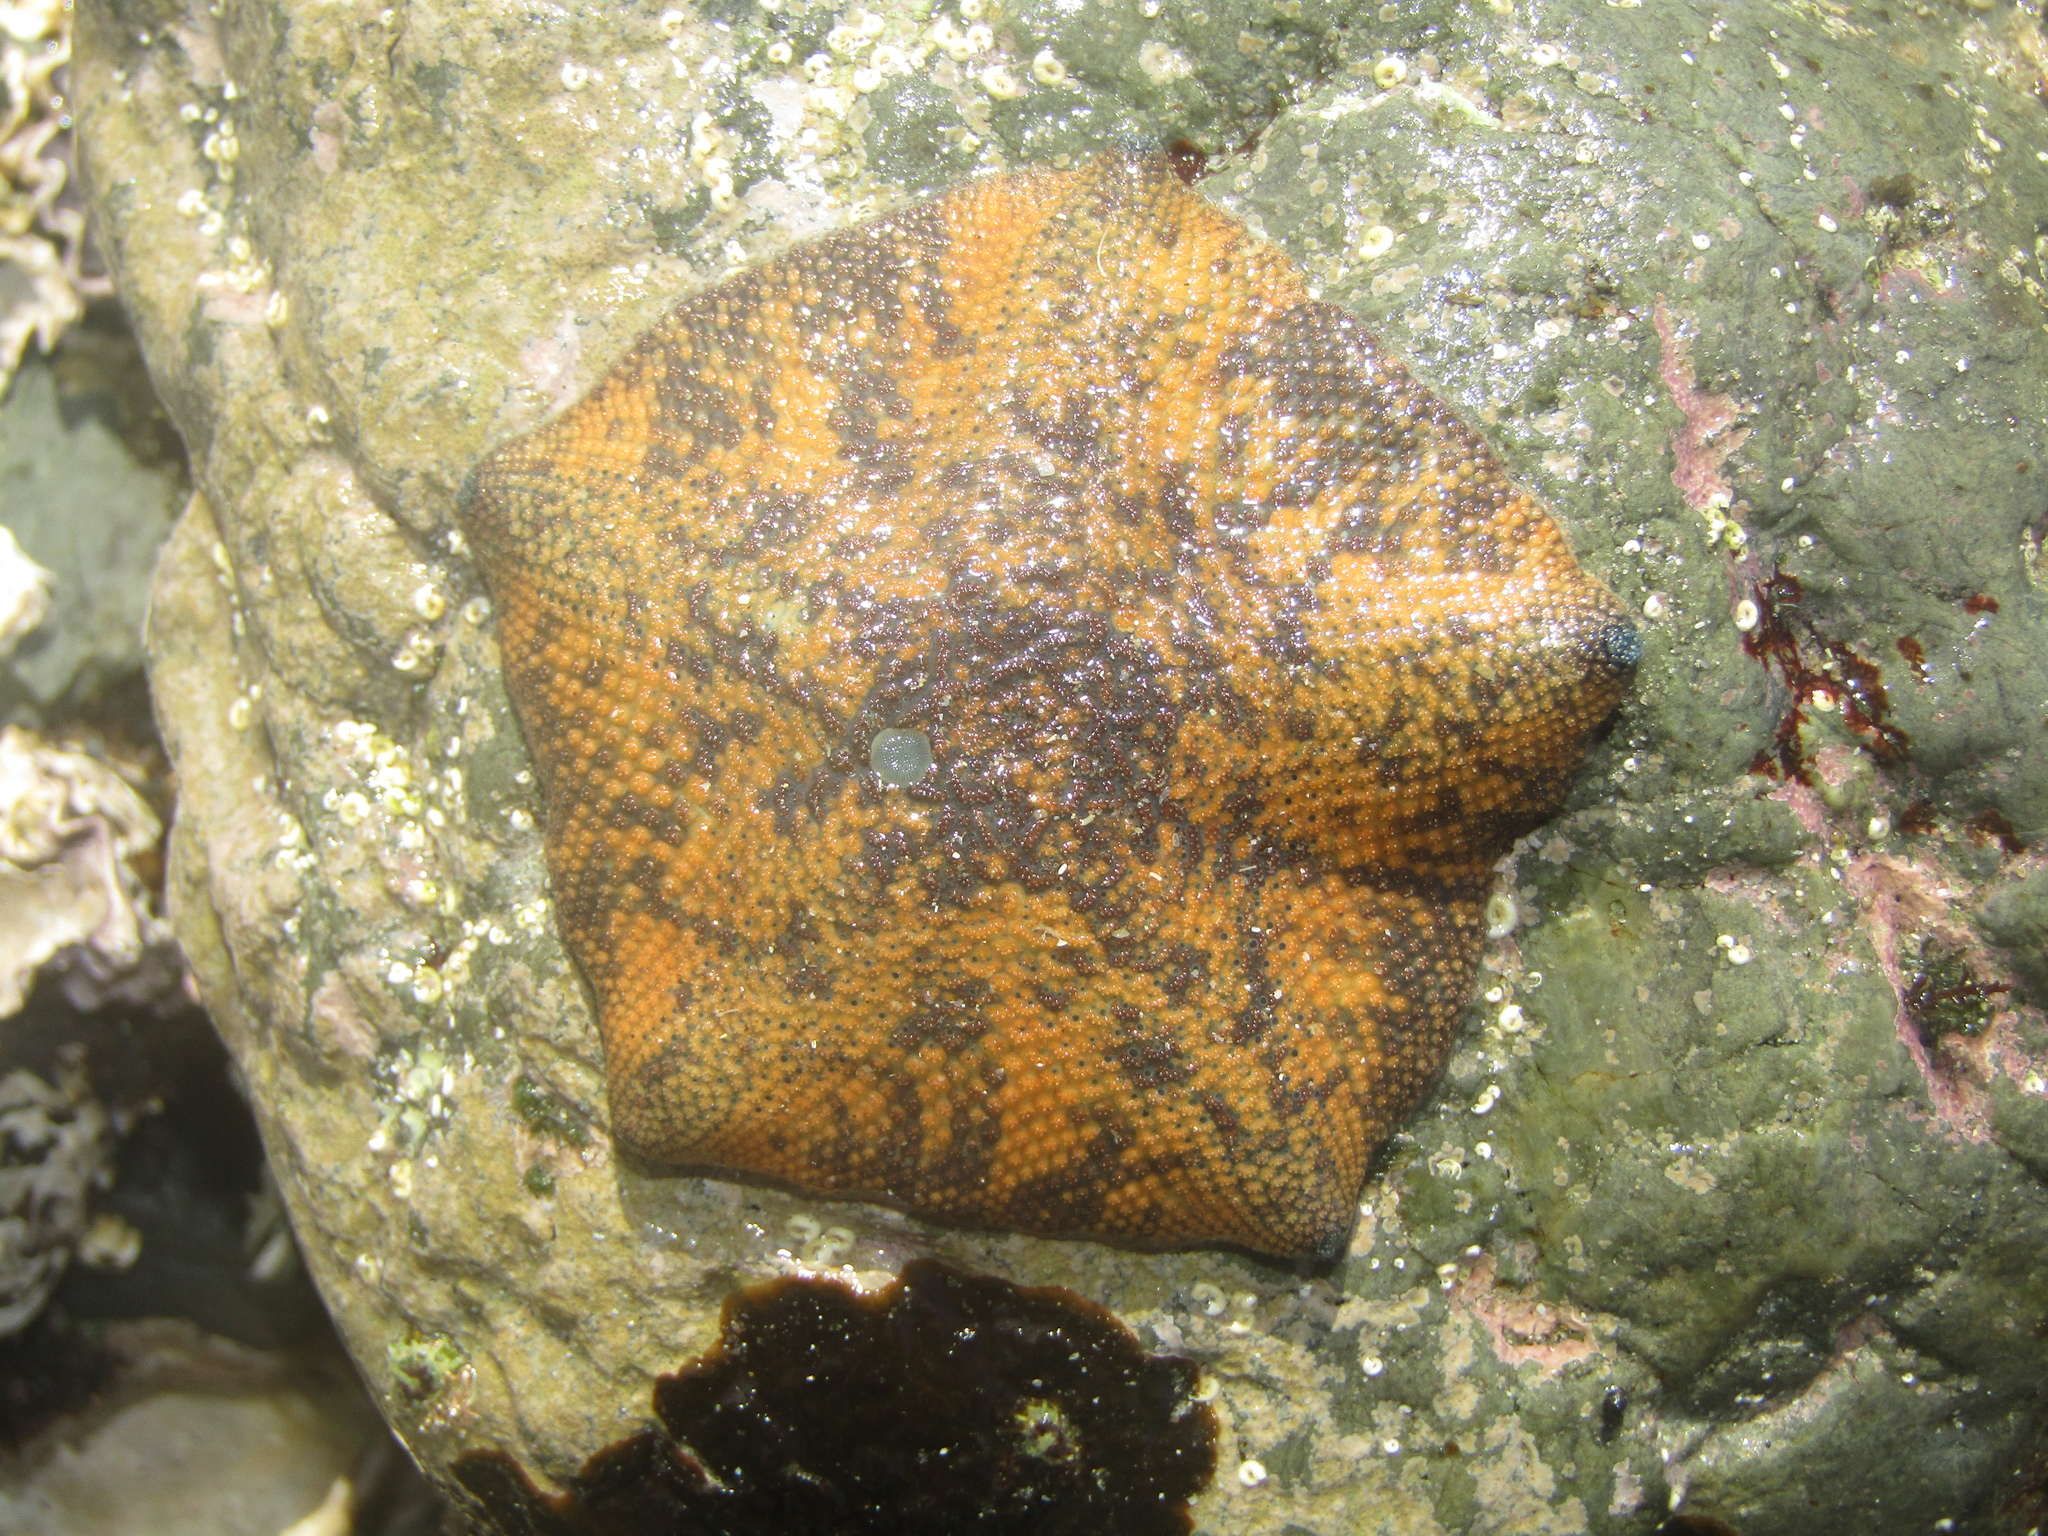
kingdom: Animalia
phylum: Echinodermata
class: Asteroidea
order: Valvatida
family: Asterinidae
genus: Patiriella
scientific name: Patiriella regularis
